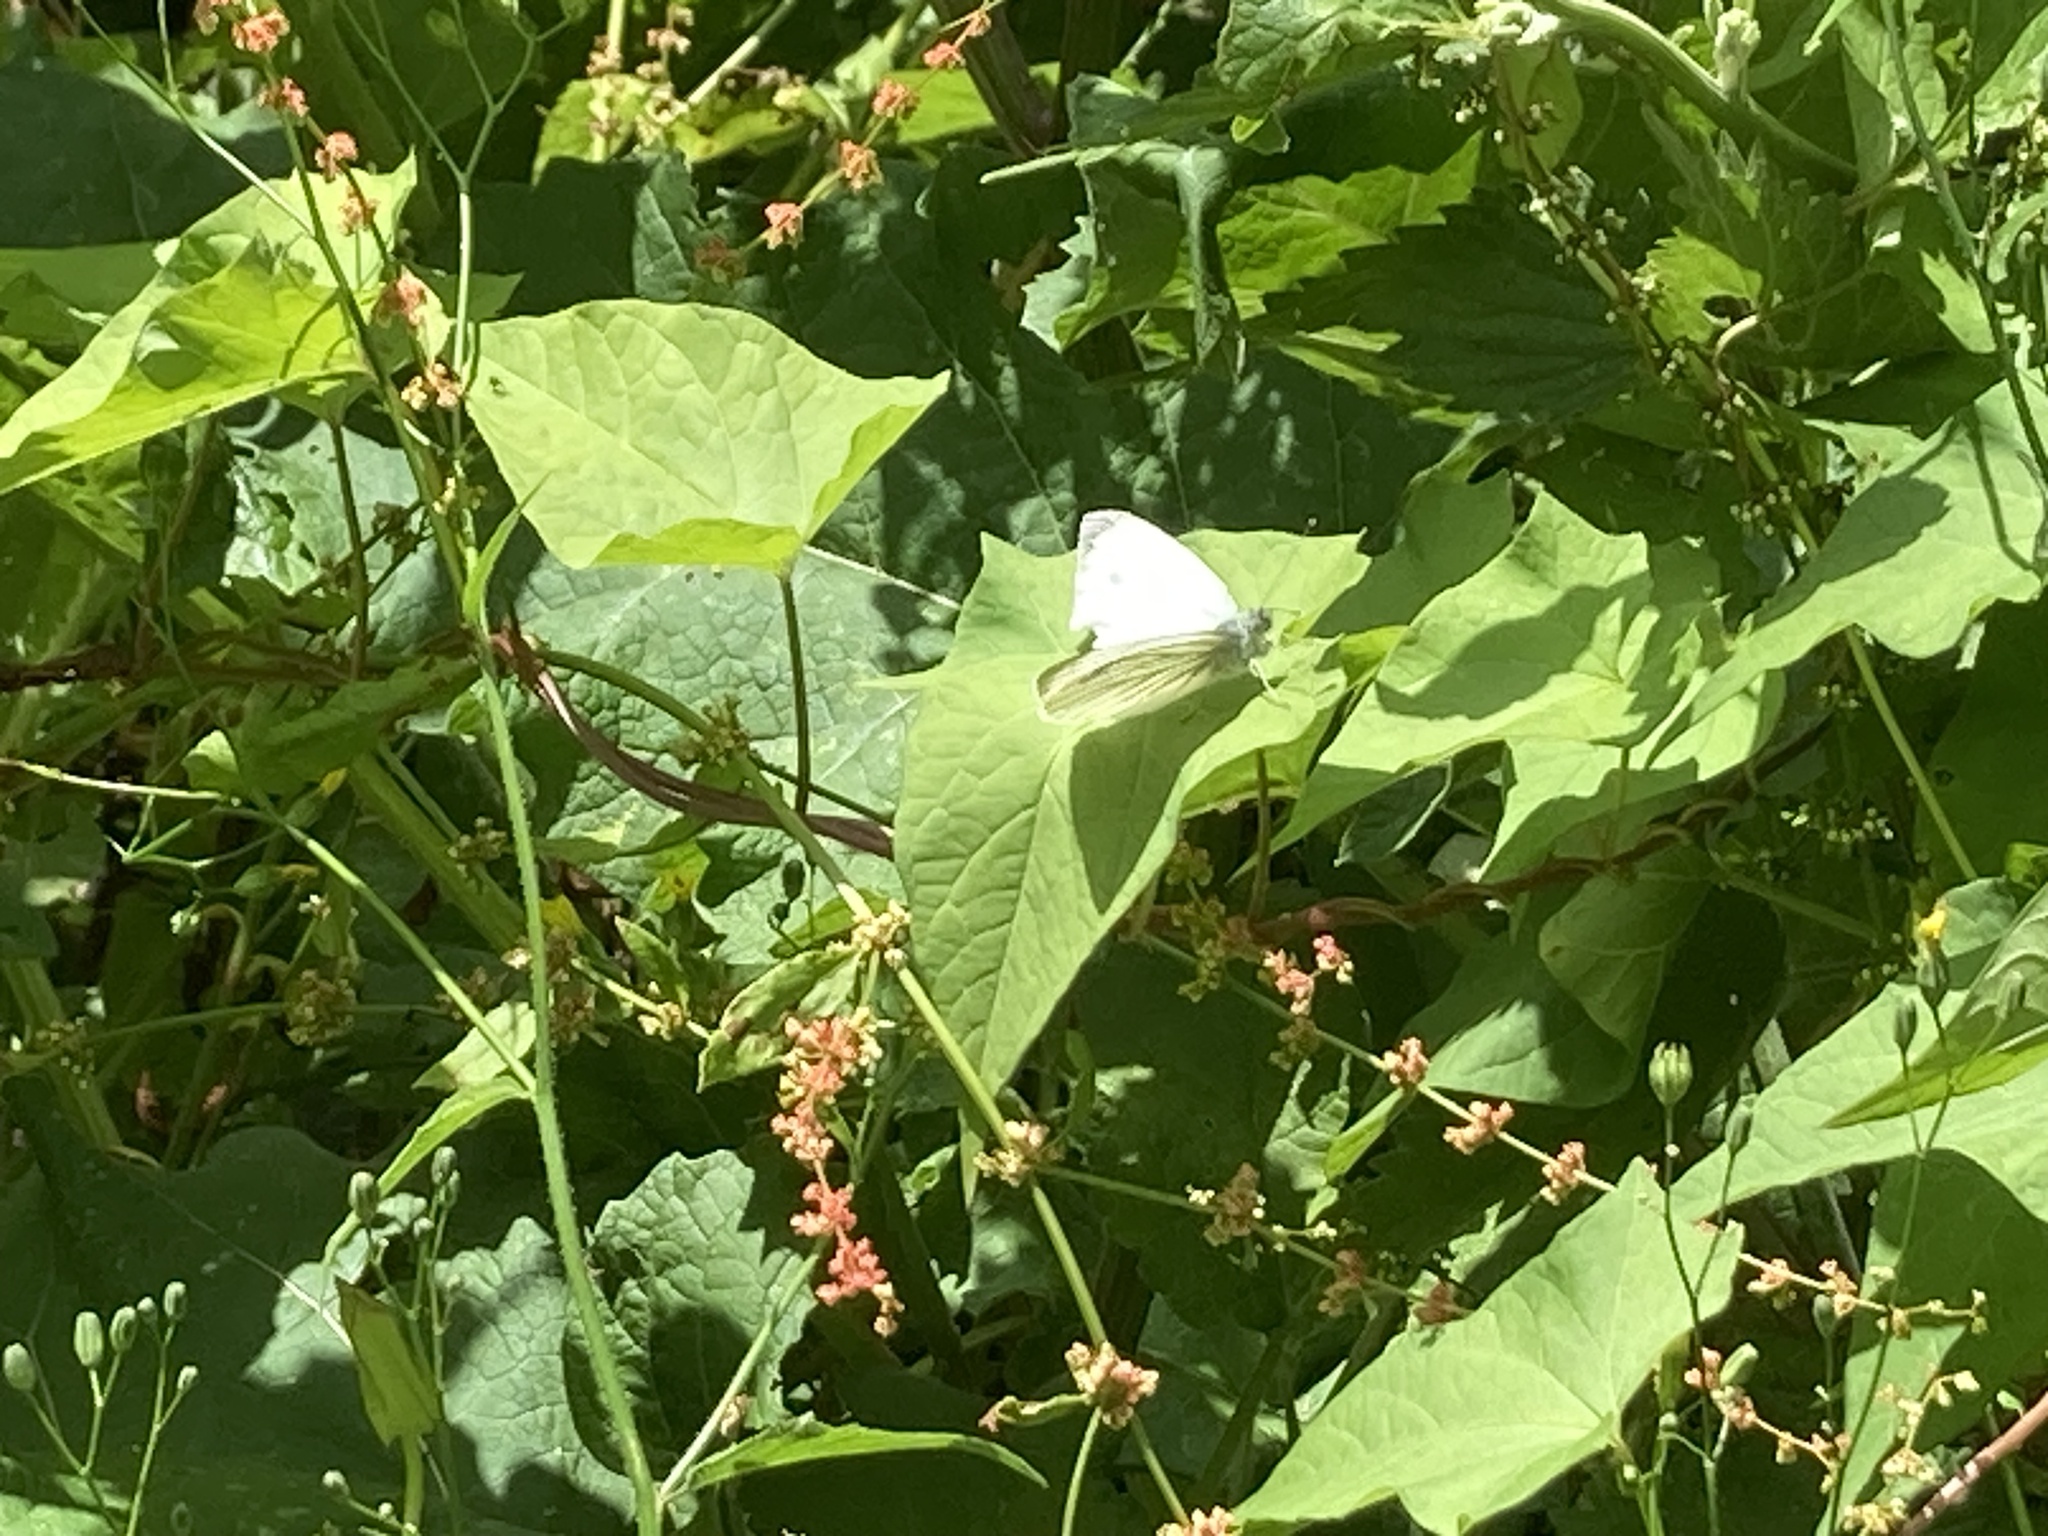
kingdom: Animalia
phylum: Arthropoda
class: Insecta
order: Lepidoptera
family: Pieridae
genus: Pieris
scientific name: Pieris napi
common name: Green-veined white
